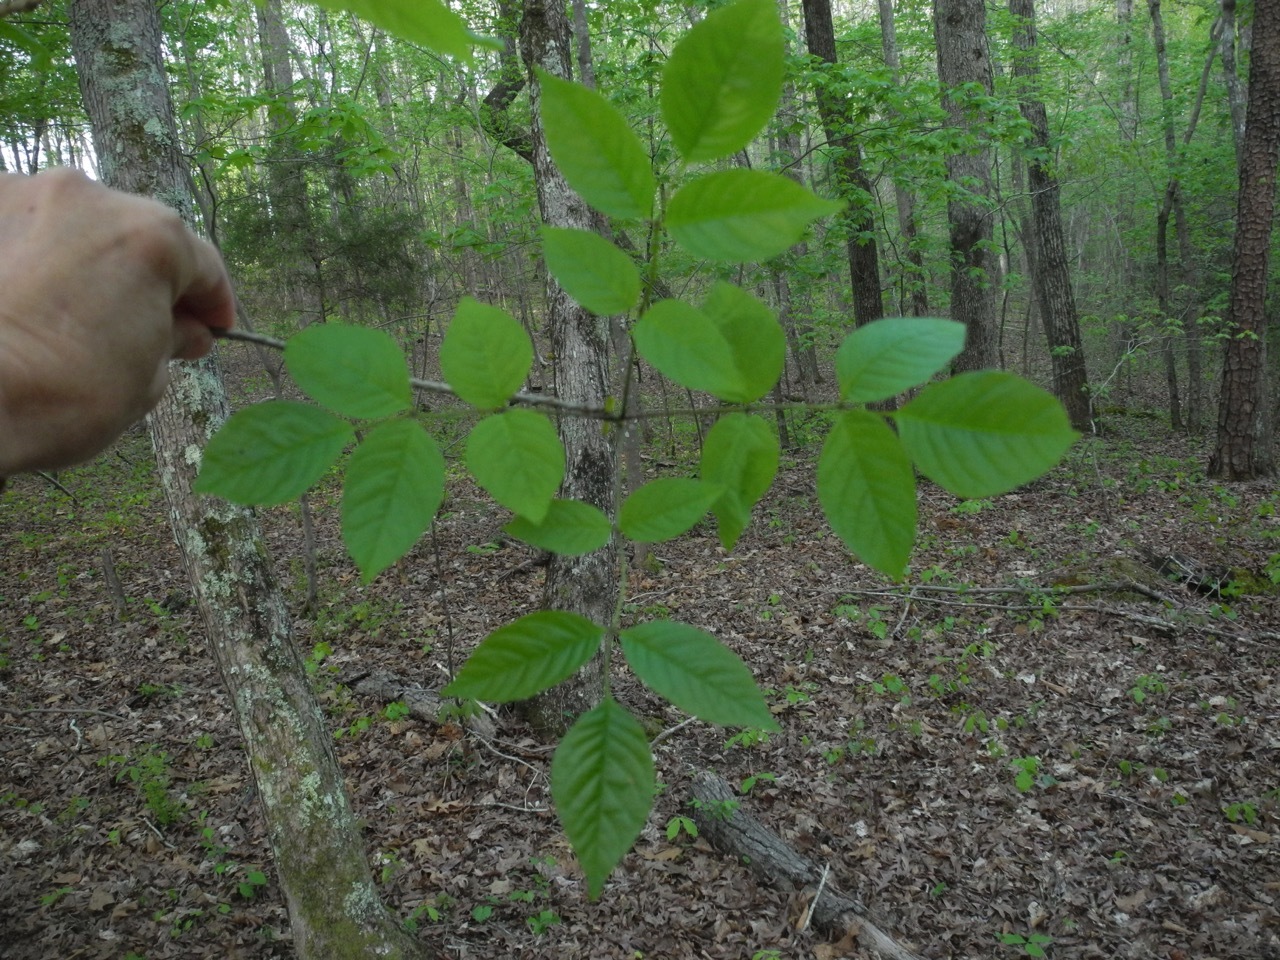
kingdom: Plantae
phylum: Tracheophyta
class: Magnoliopsida
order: Lamiales
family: Oleaceae
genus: Fraxinus
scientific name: Fraxinus pennsylvanica
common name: Green ash
